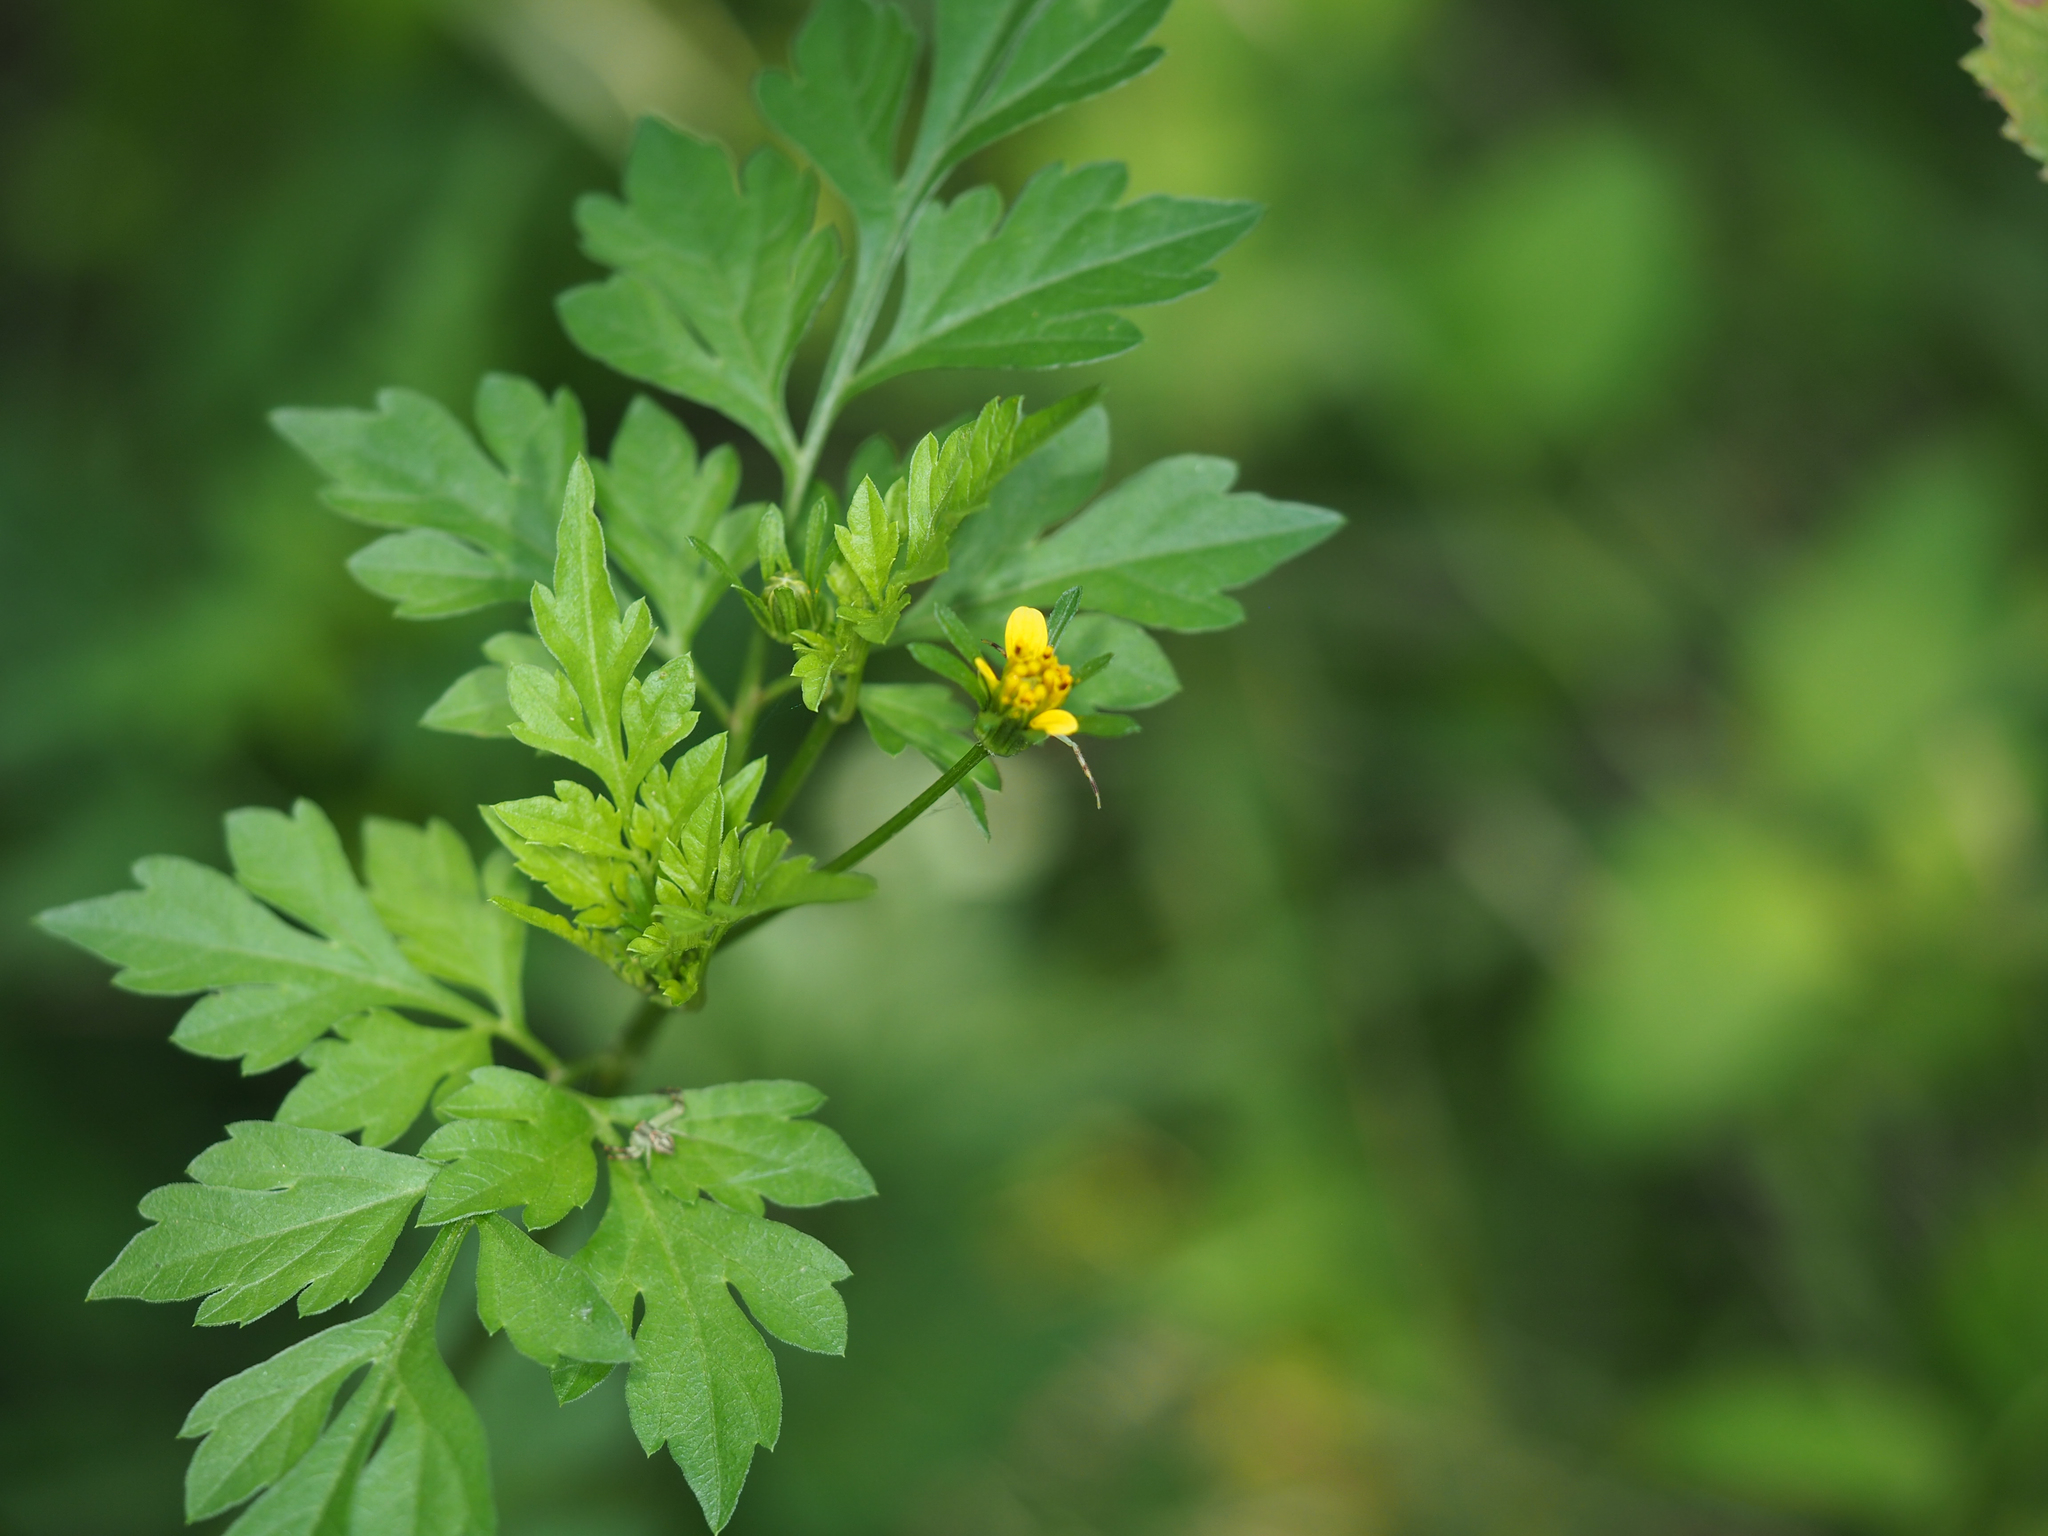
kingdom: Plantae
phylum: Tracheophyta
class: Magnoliopsida
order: Asterales
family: Asteraceae
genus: Bidens
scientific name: Bidens bipinnata
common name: Spanish-needles
